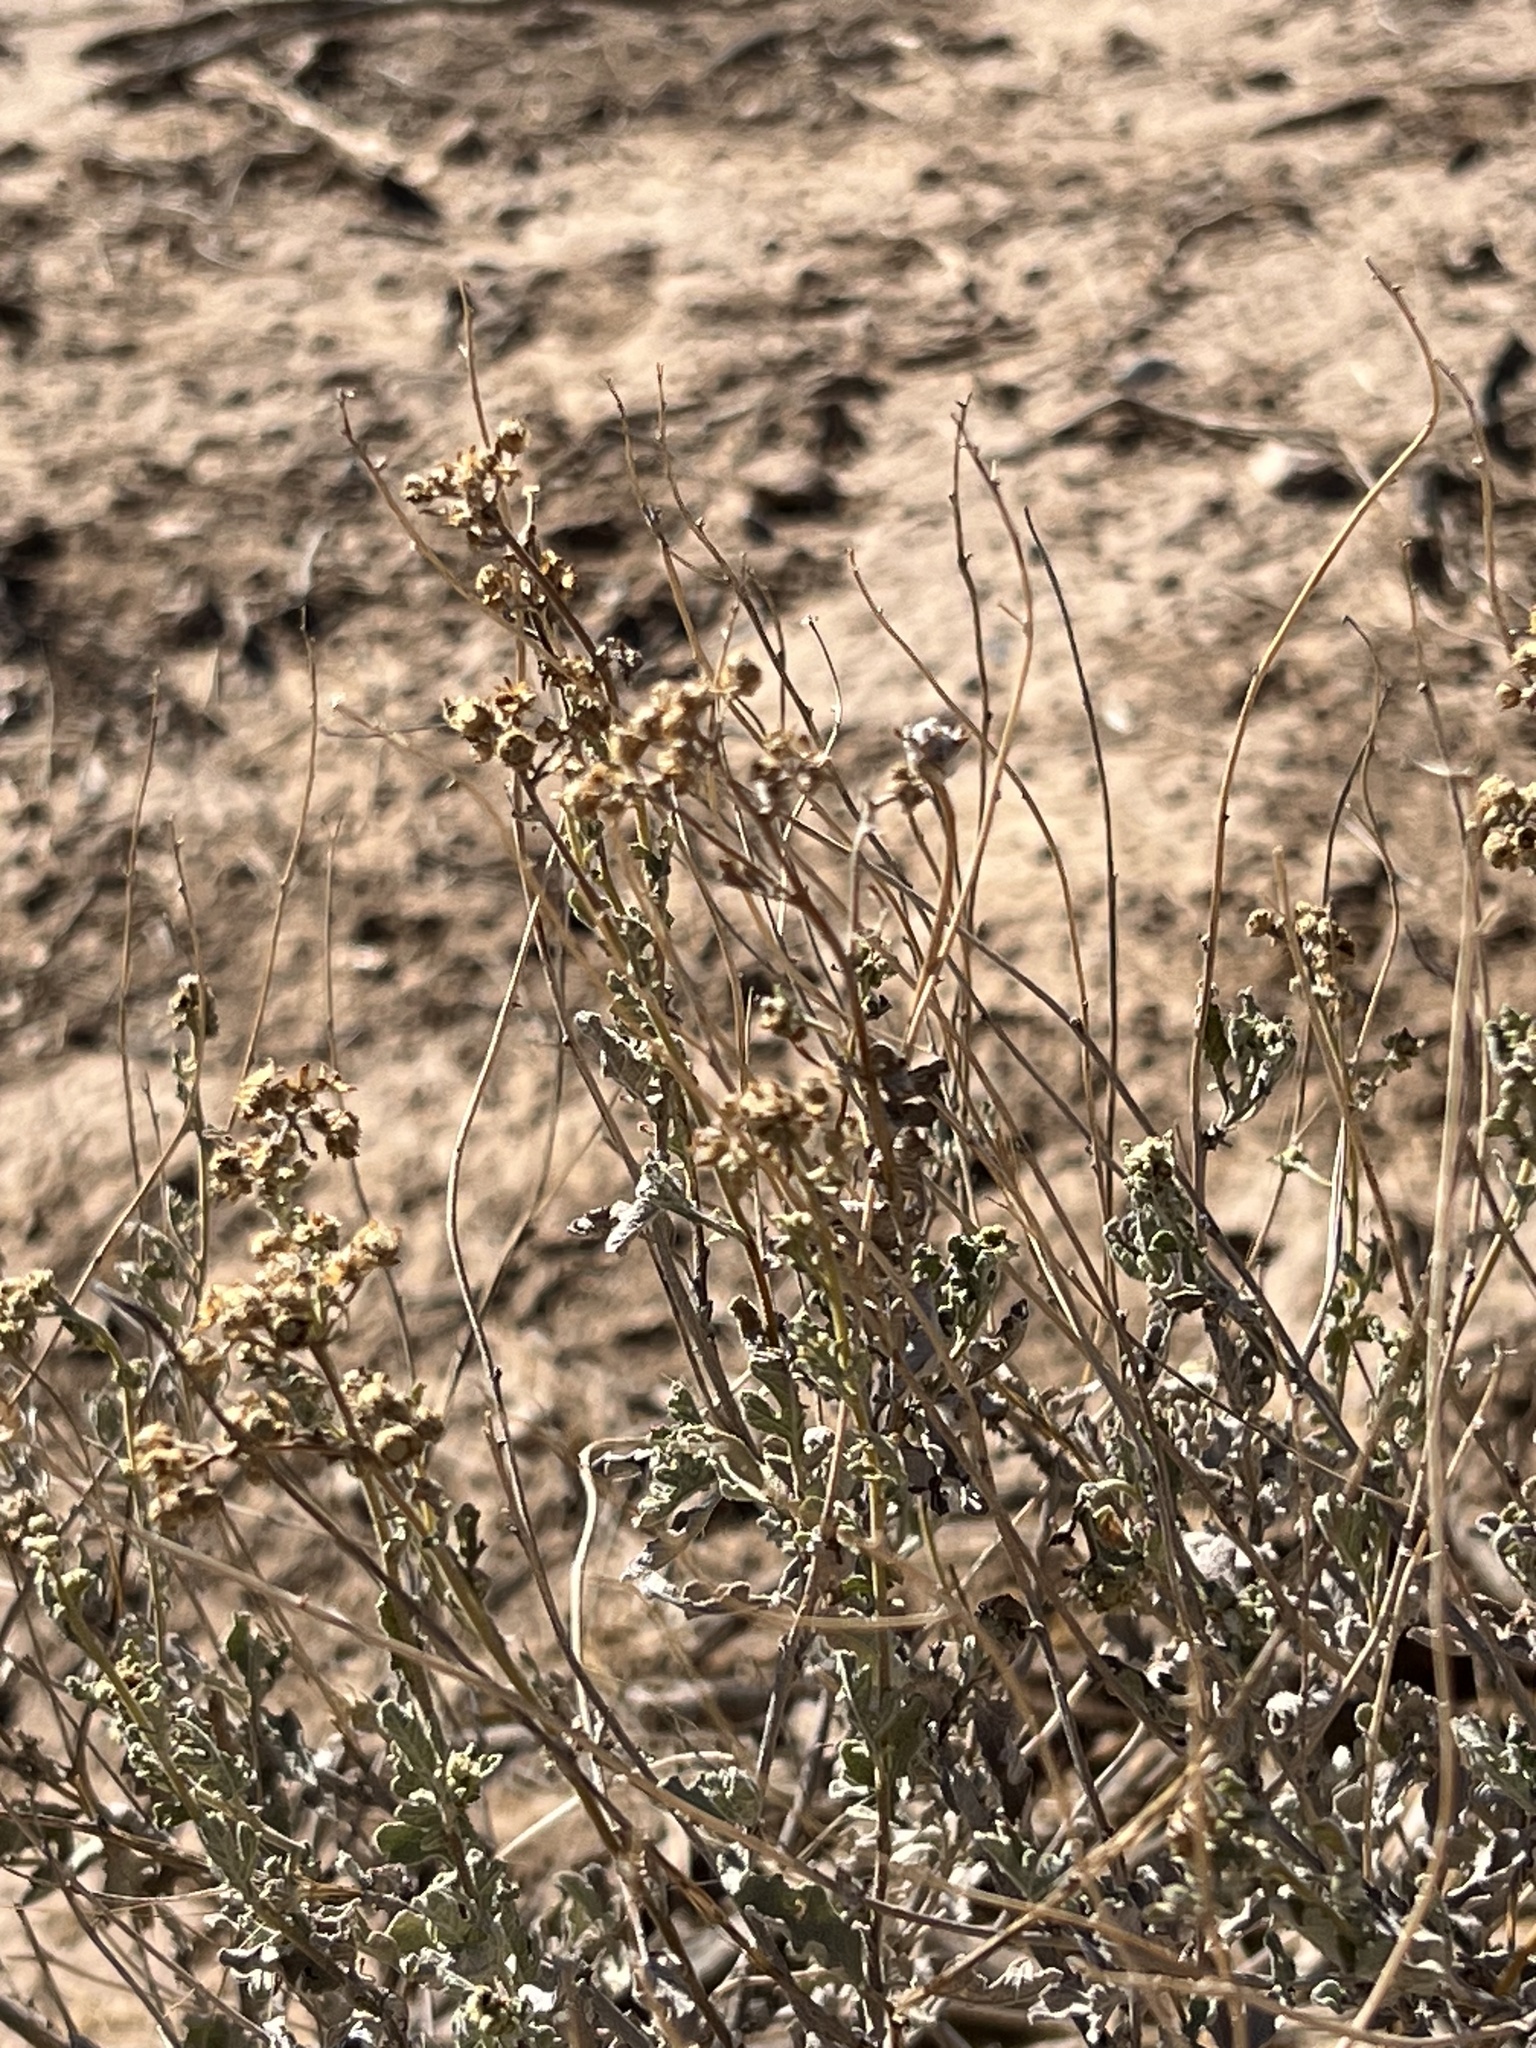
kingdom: Plantae
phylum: Tracheophyta
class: Magnoliopsida
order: Asterales
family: Asteraceae
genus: Parthenium
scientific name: Parthenium incanum
